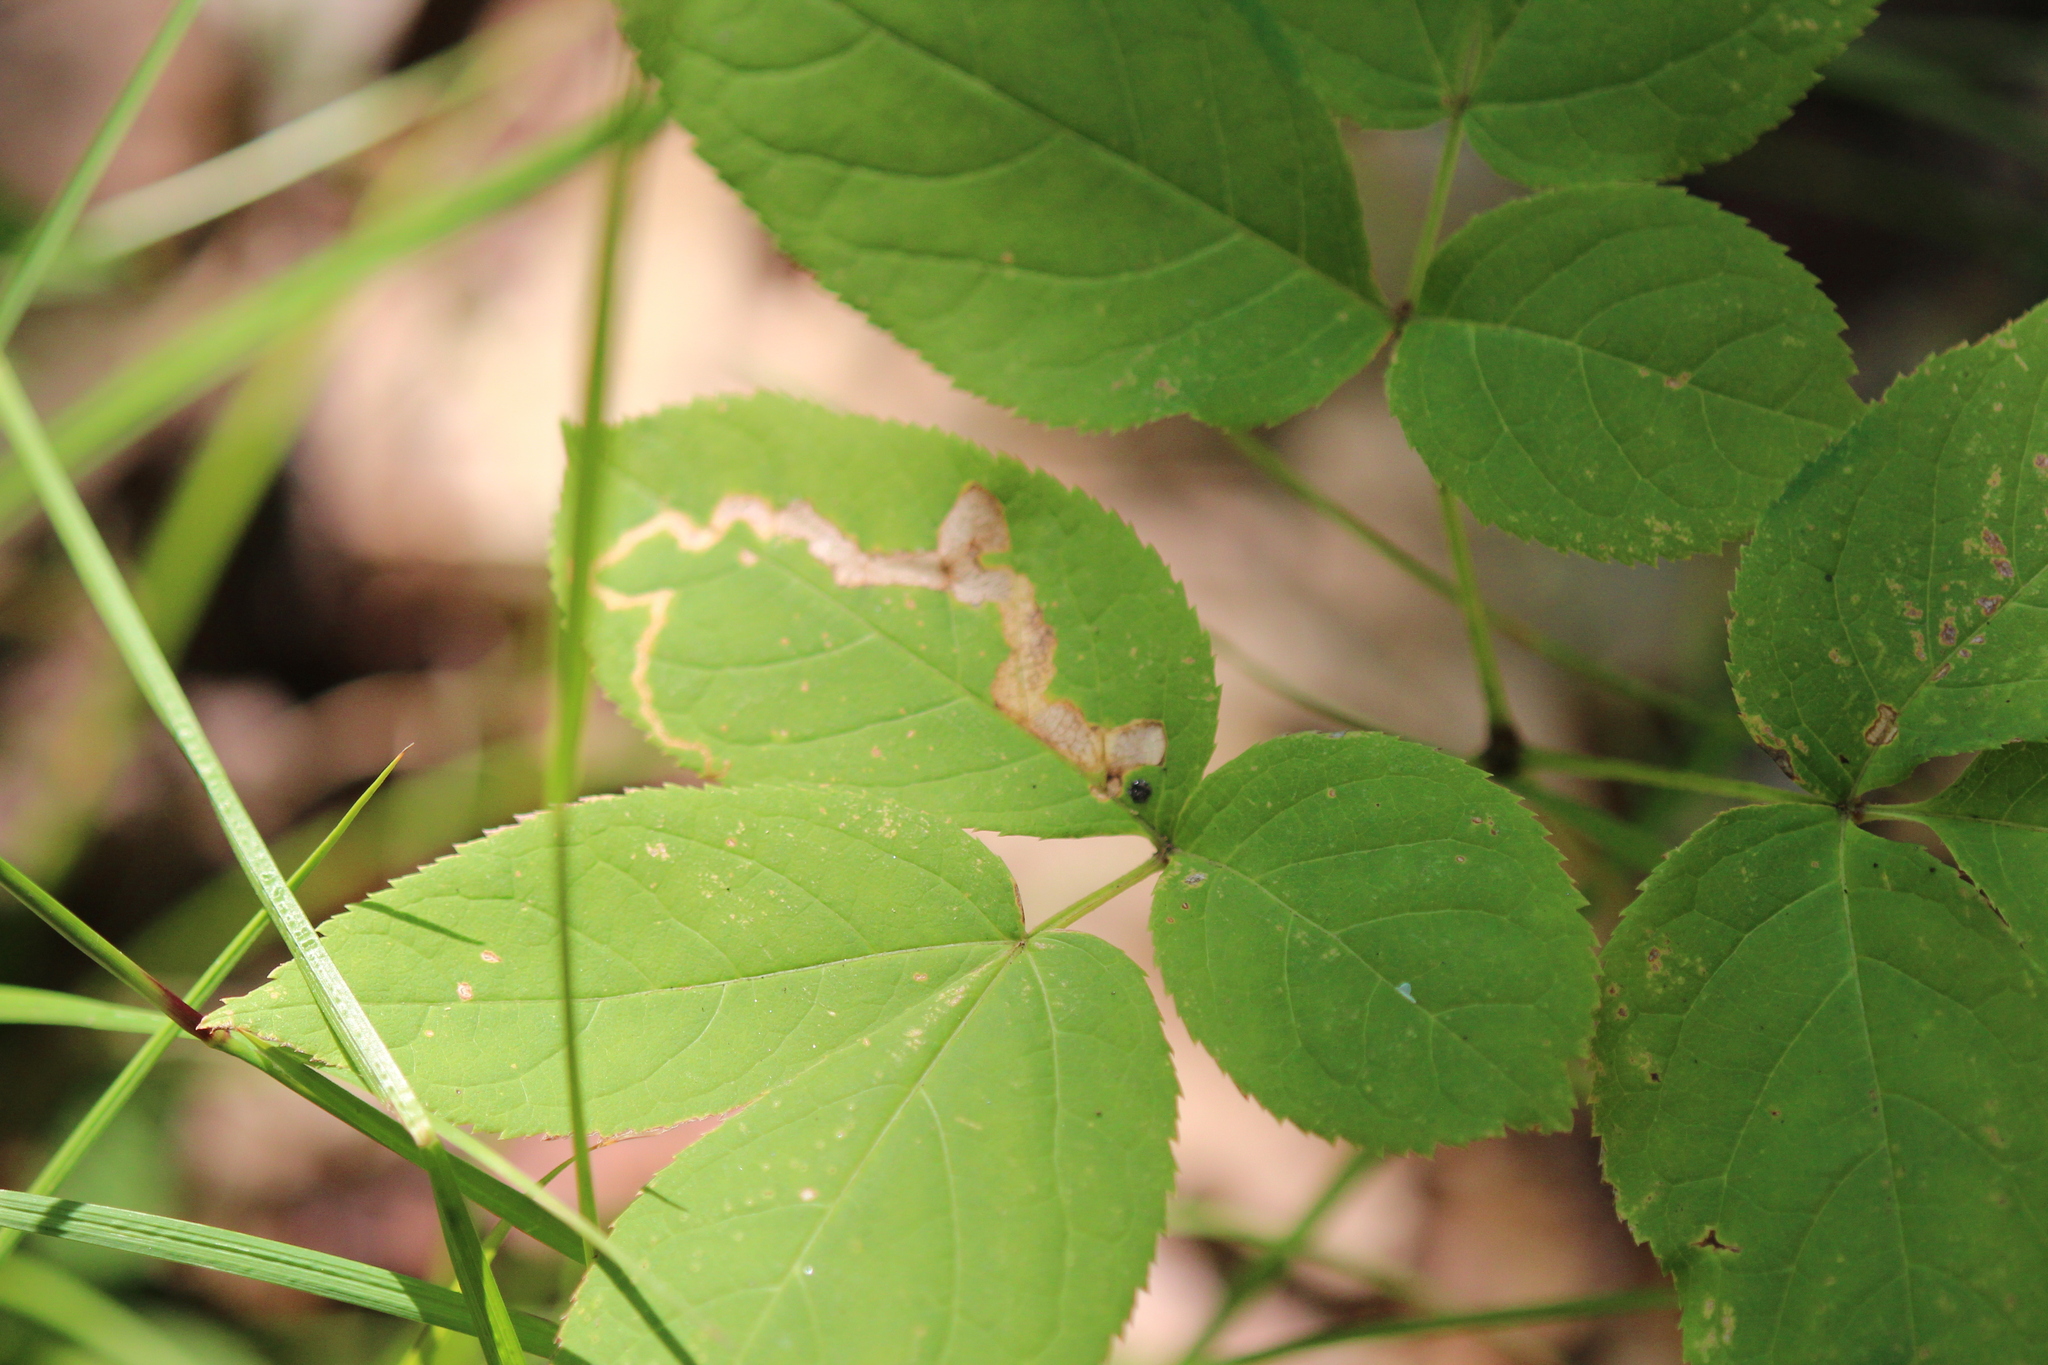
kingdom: Plantae
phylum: Tracheophyta
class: Magnoliopsida
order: Apiales
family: Araliaceae
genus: Aralia
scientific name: Aralia nudicaulis
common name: Wild sarsaparilla
